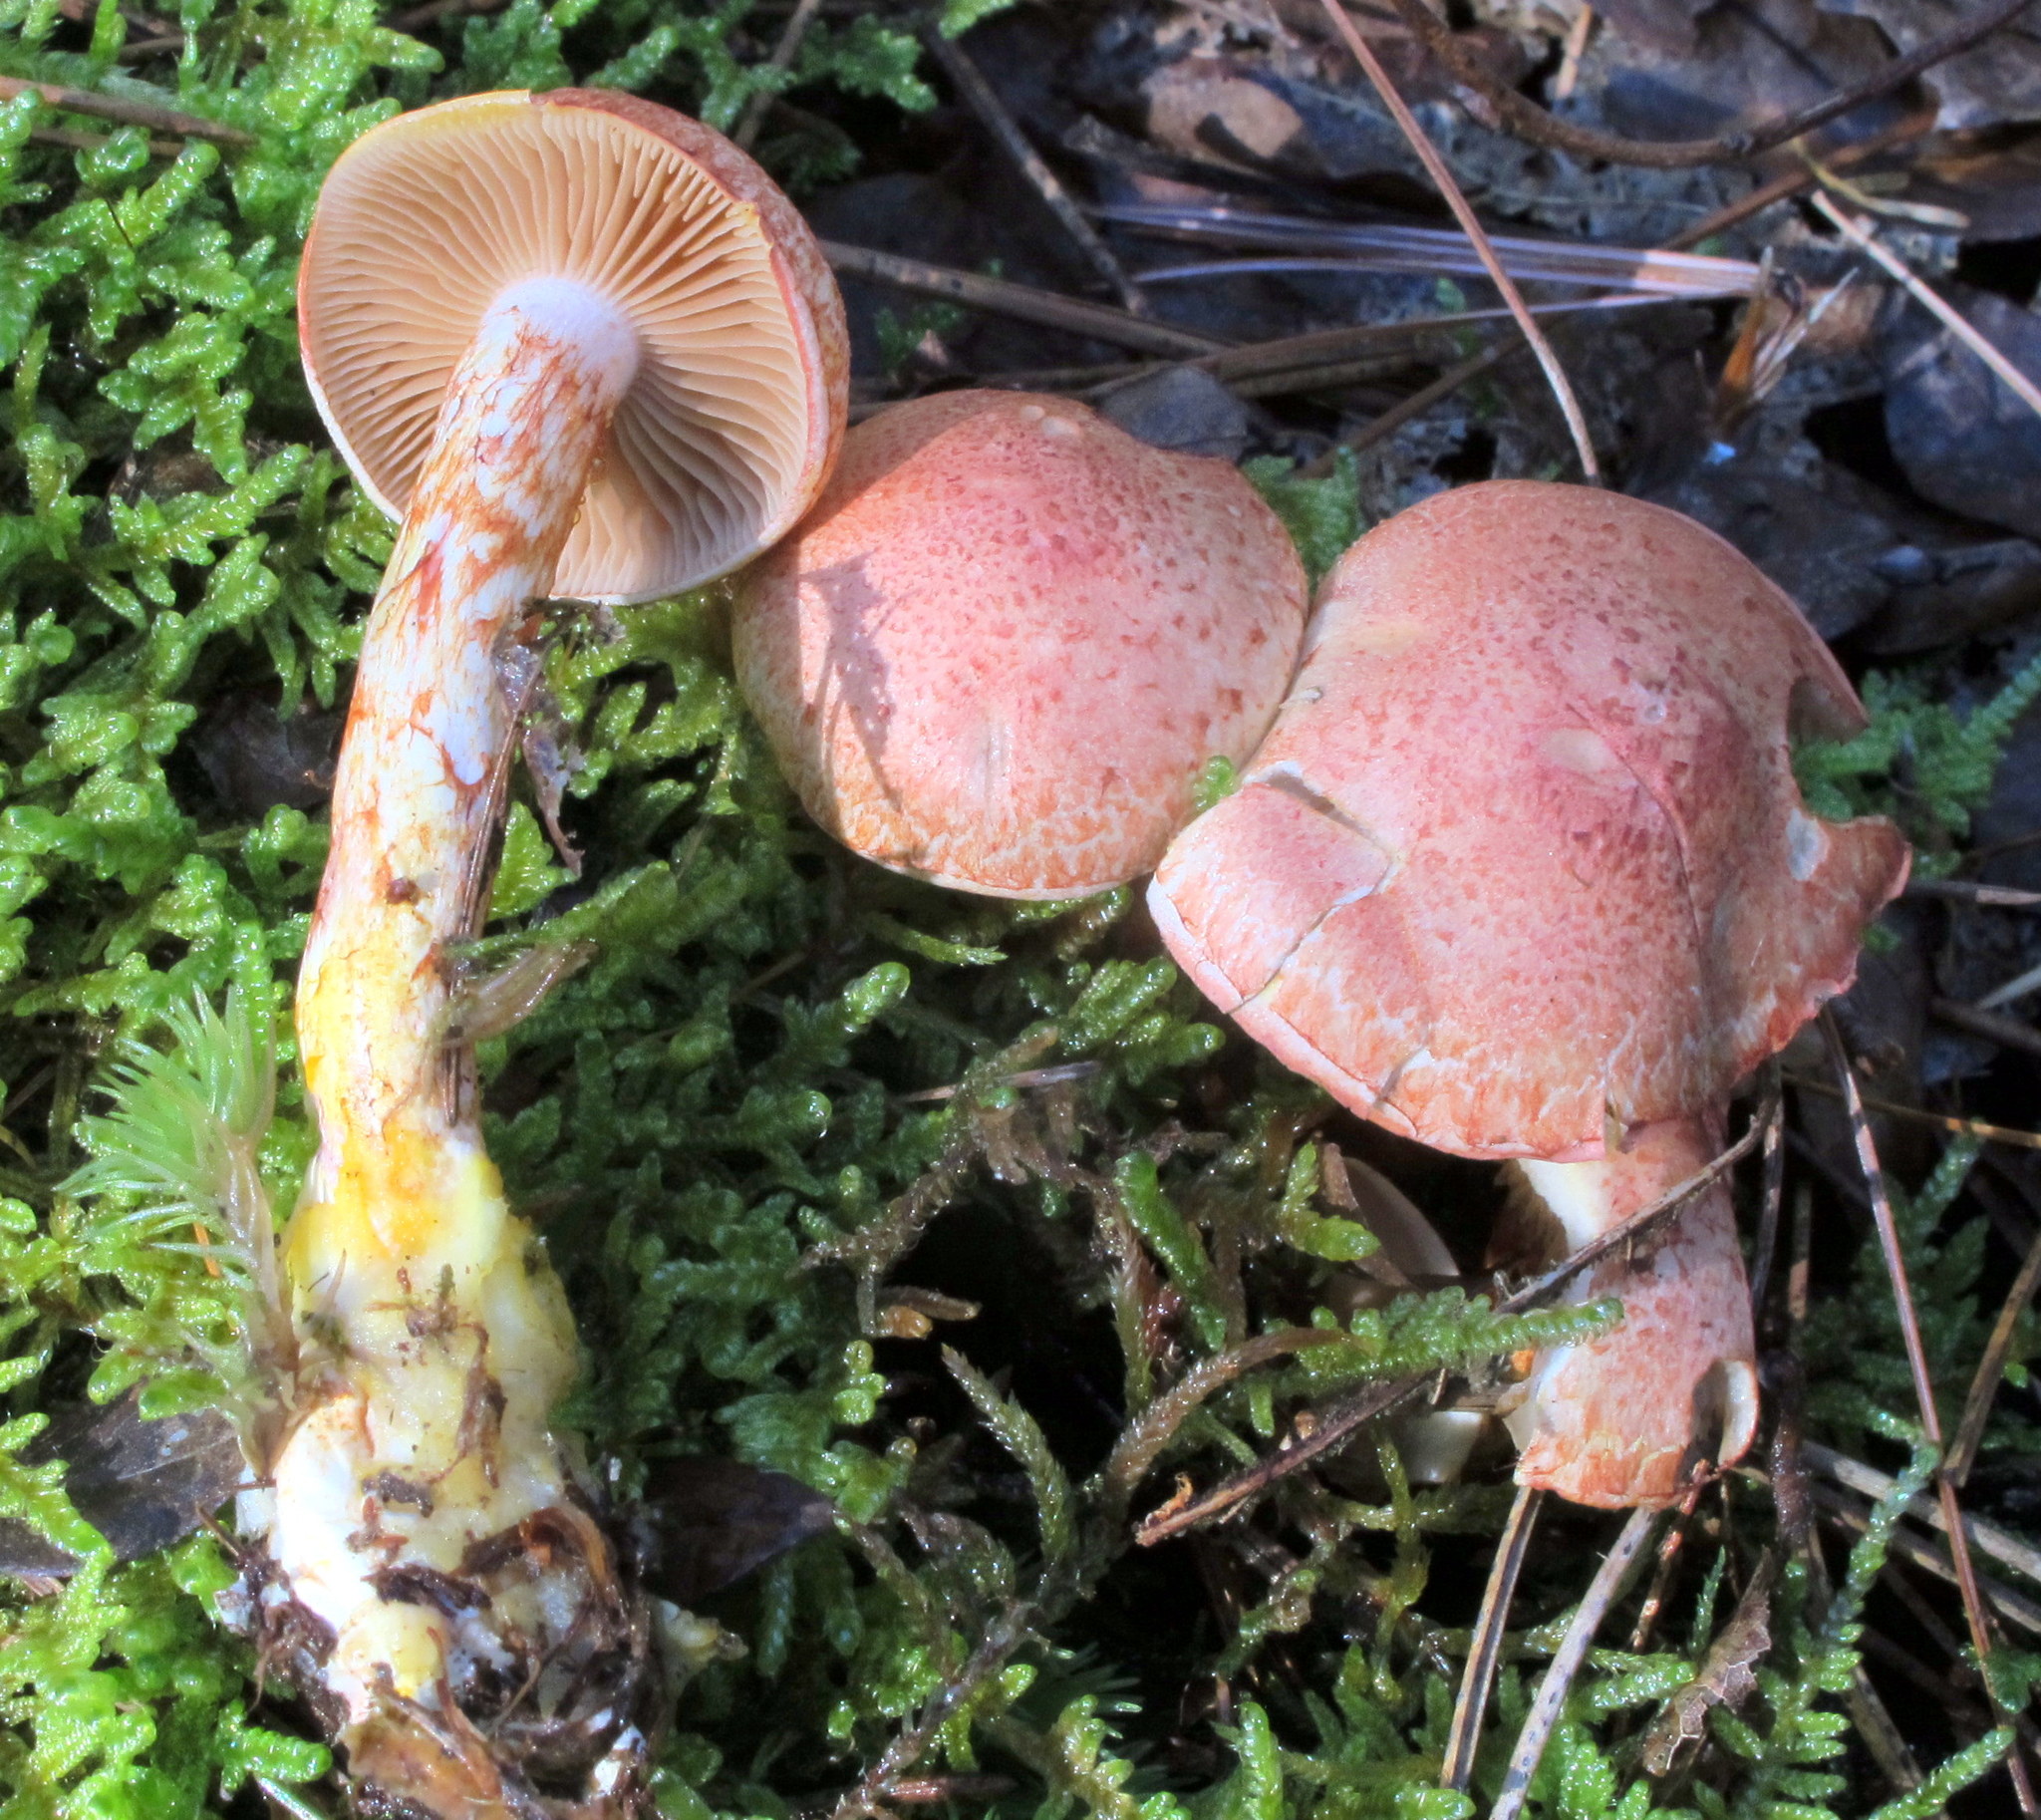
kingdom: Fungi
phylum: Basidiomycota
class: Agaricomycetes
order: Agaricales
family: Cortinariaceae
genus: Cortinarius
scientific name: Cortinarius bolaris
